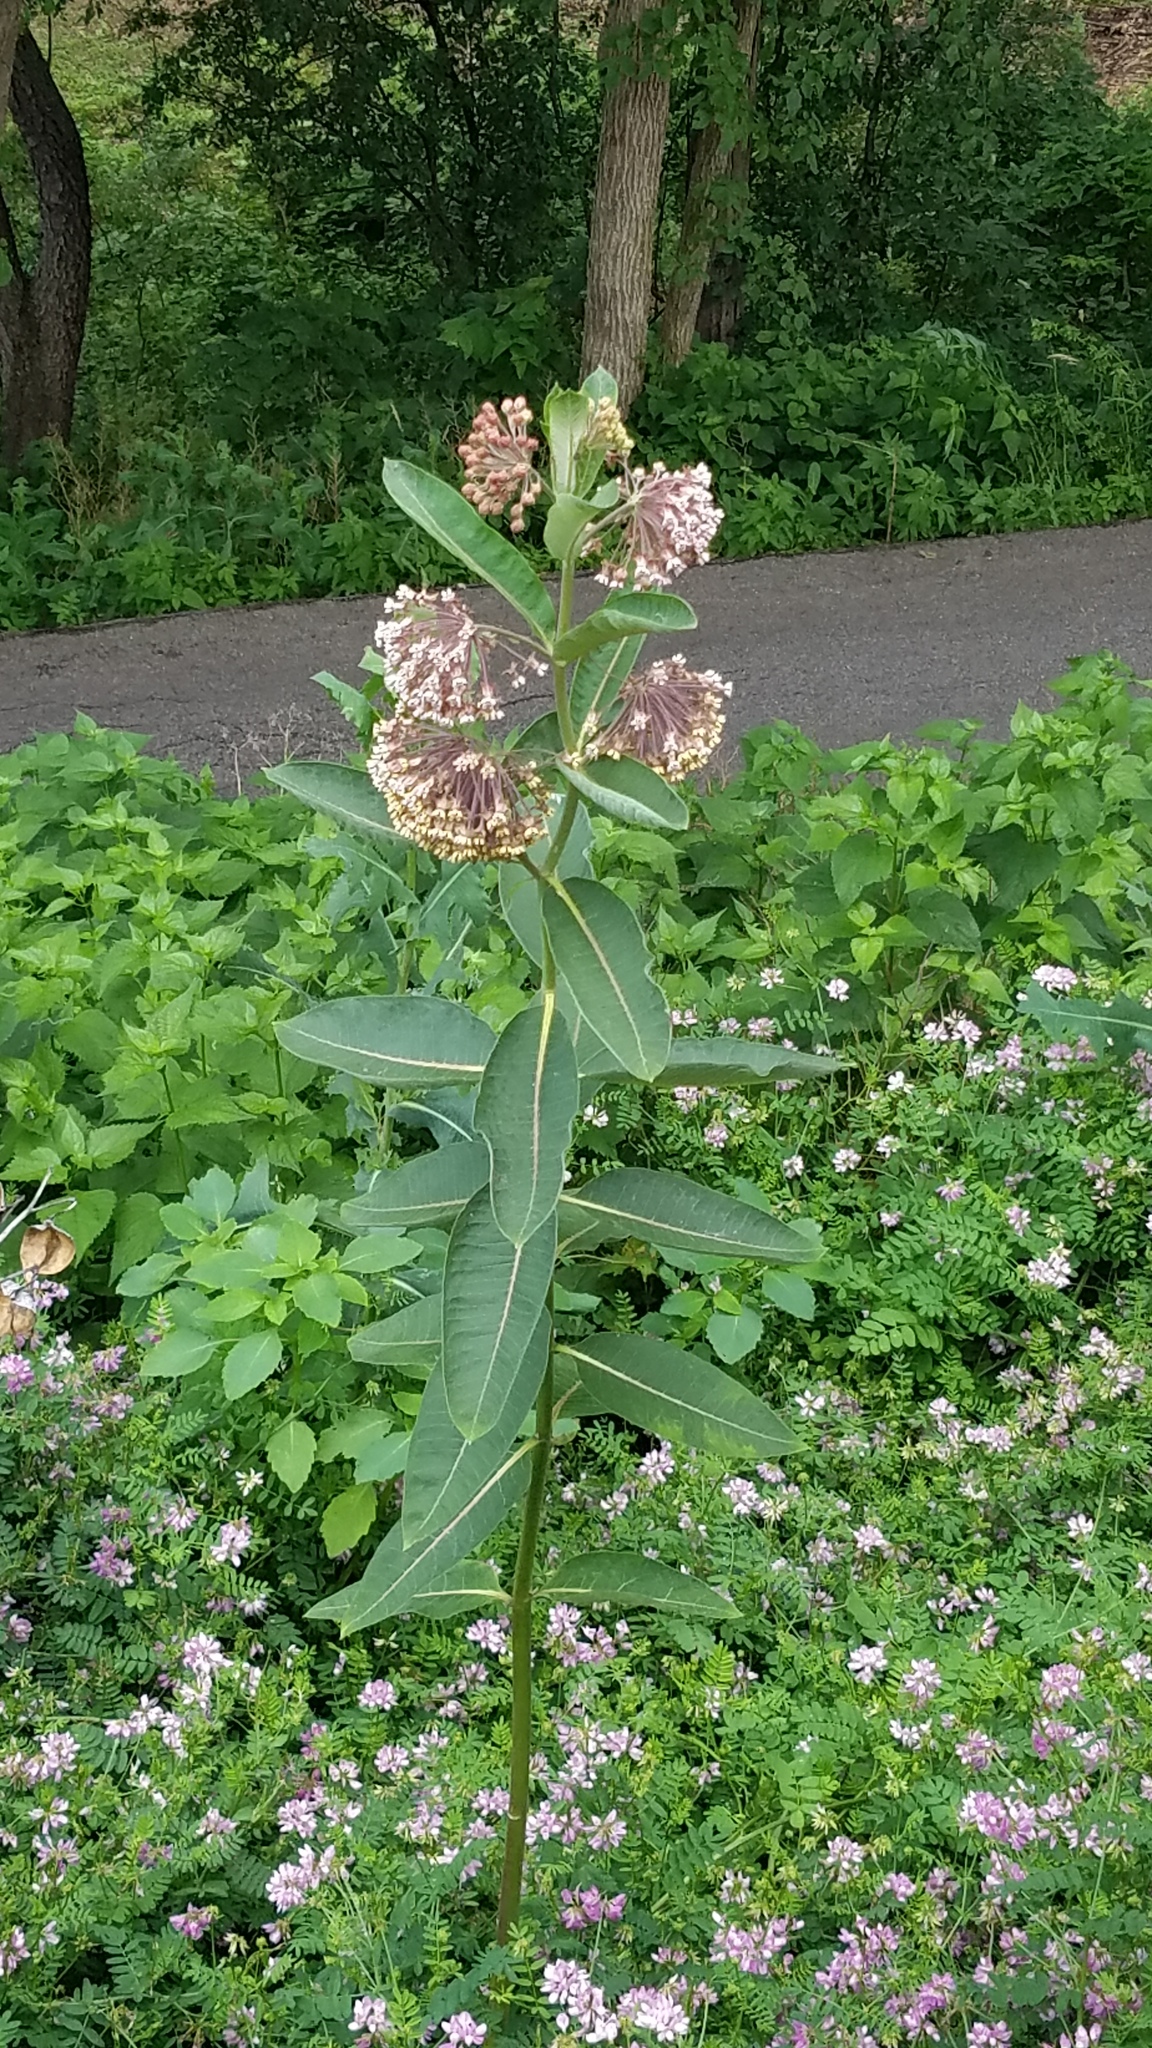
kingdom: Plantae
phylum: Tracheophyta
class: Magnoliopsida
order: Gentianales
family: Apocynaceae
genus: Asclepias
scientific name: Asclepias syriaca
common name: Common milkweed
